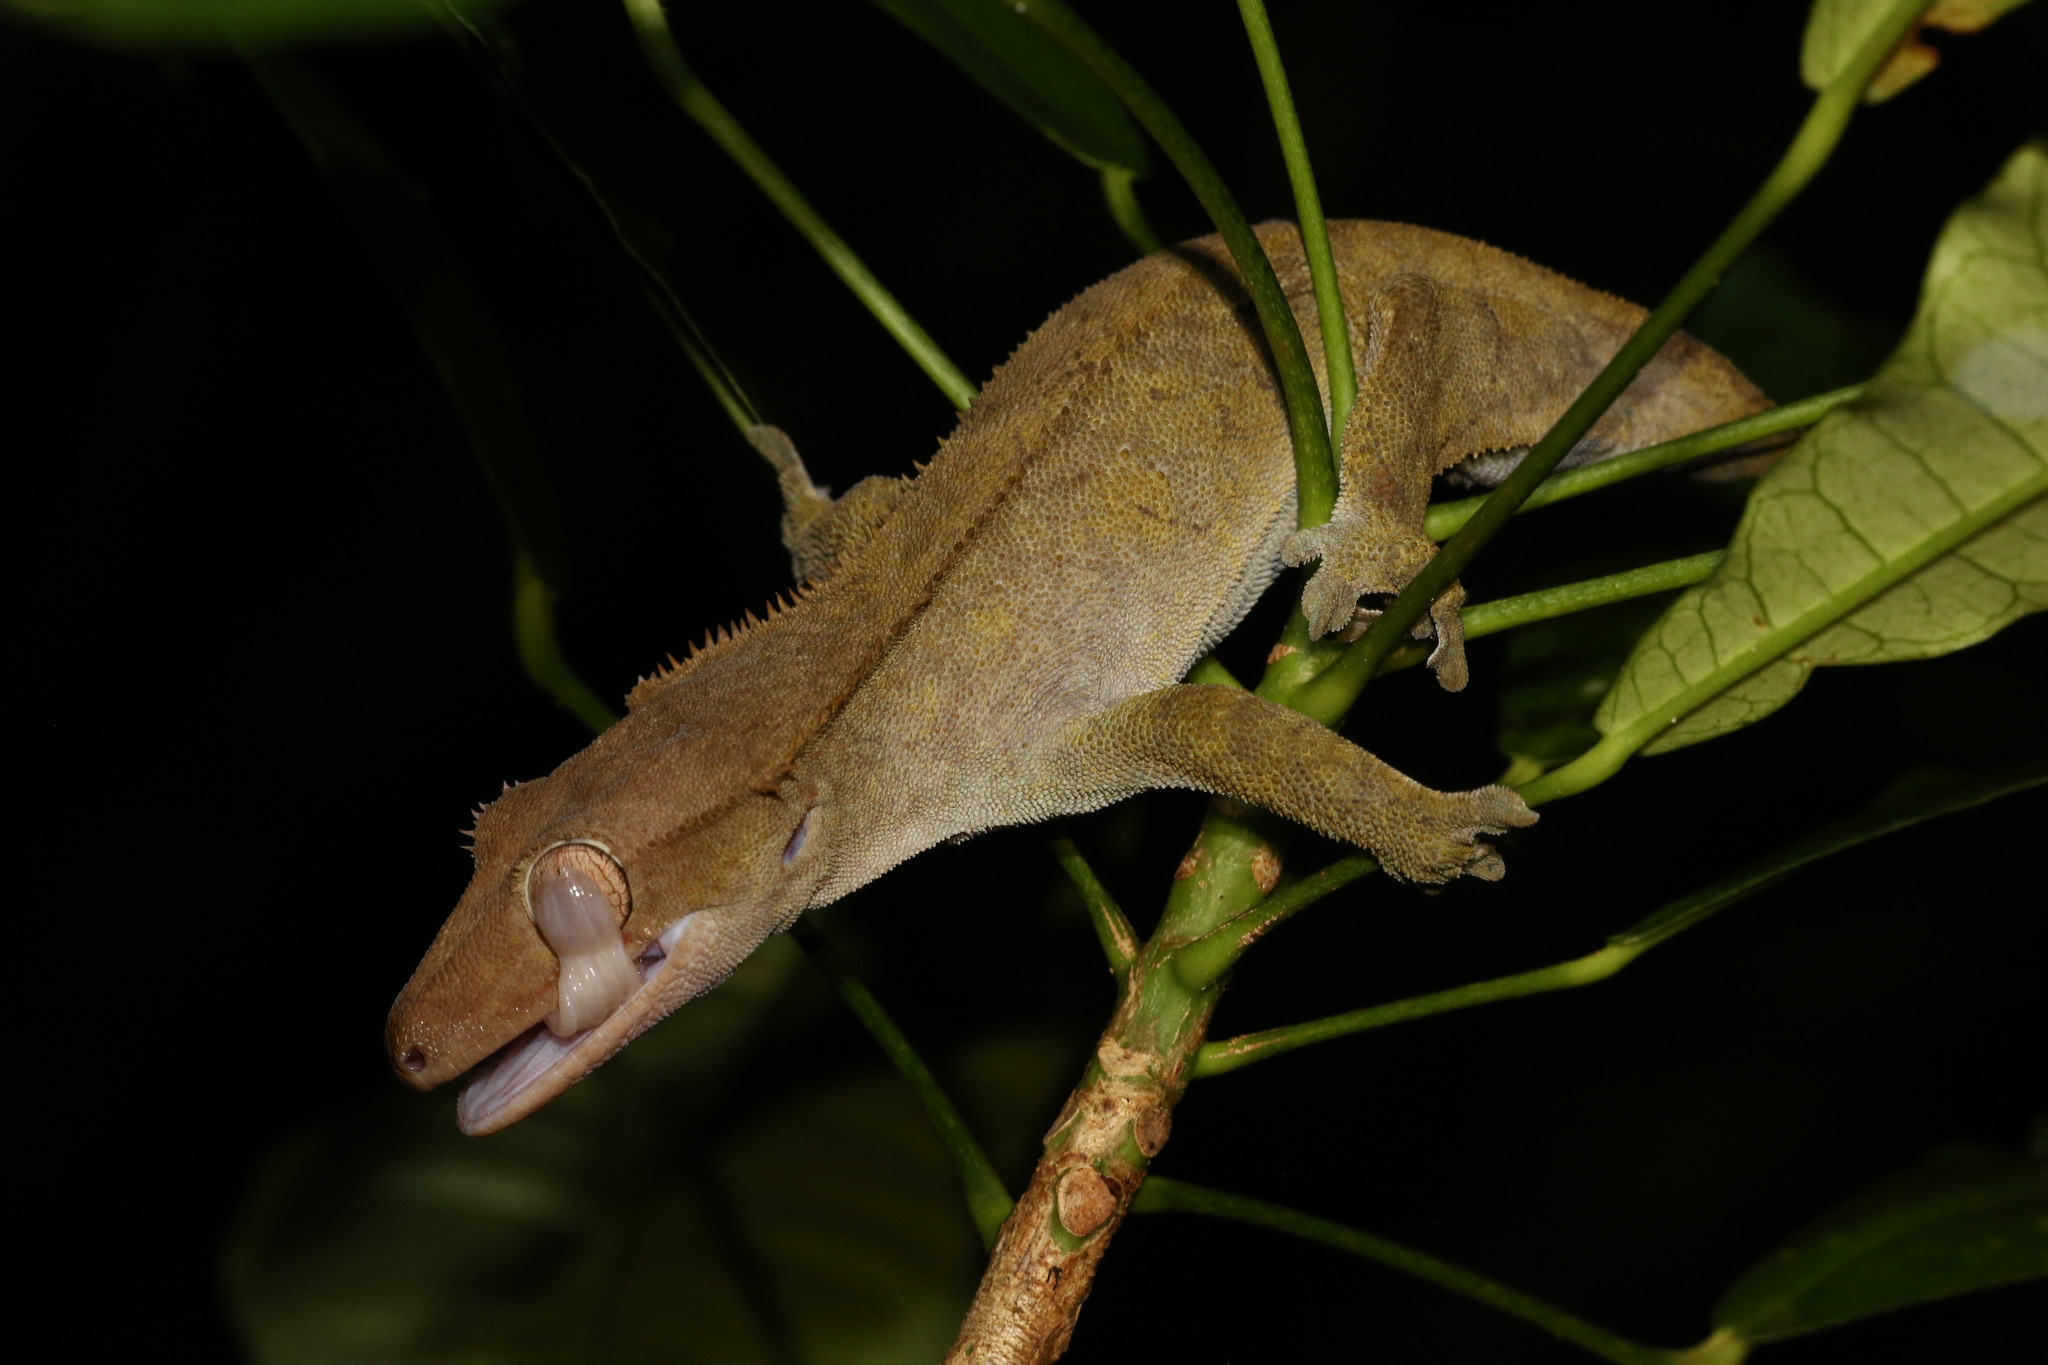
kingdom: Animalia
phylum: Chordata
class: Squamata
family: Diplodactylidae
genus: Correlophus
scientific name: Correlophus ciliatus
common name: Crested gecko
